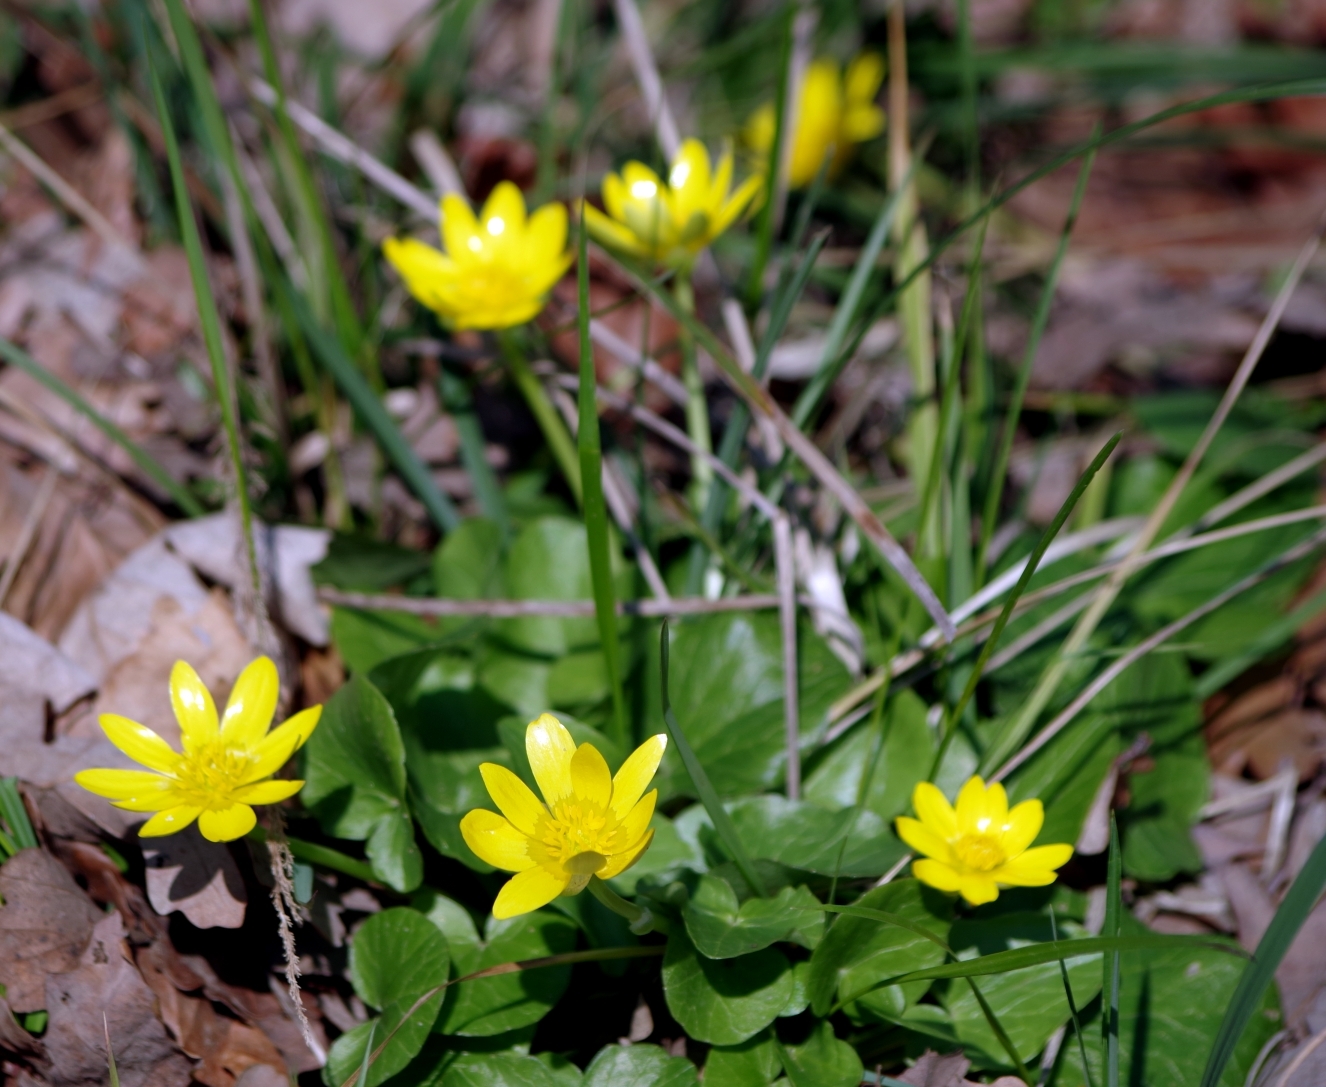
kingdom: Plantae
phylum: Tracheophyta
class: Magnoliopsida
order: Ranunculales
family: Ranunculaceae
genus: Ficaria
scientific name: Ficaria verna
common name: Lesser celandine
